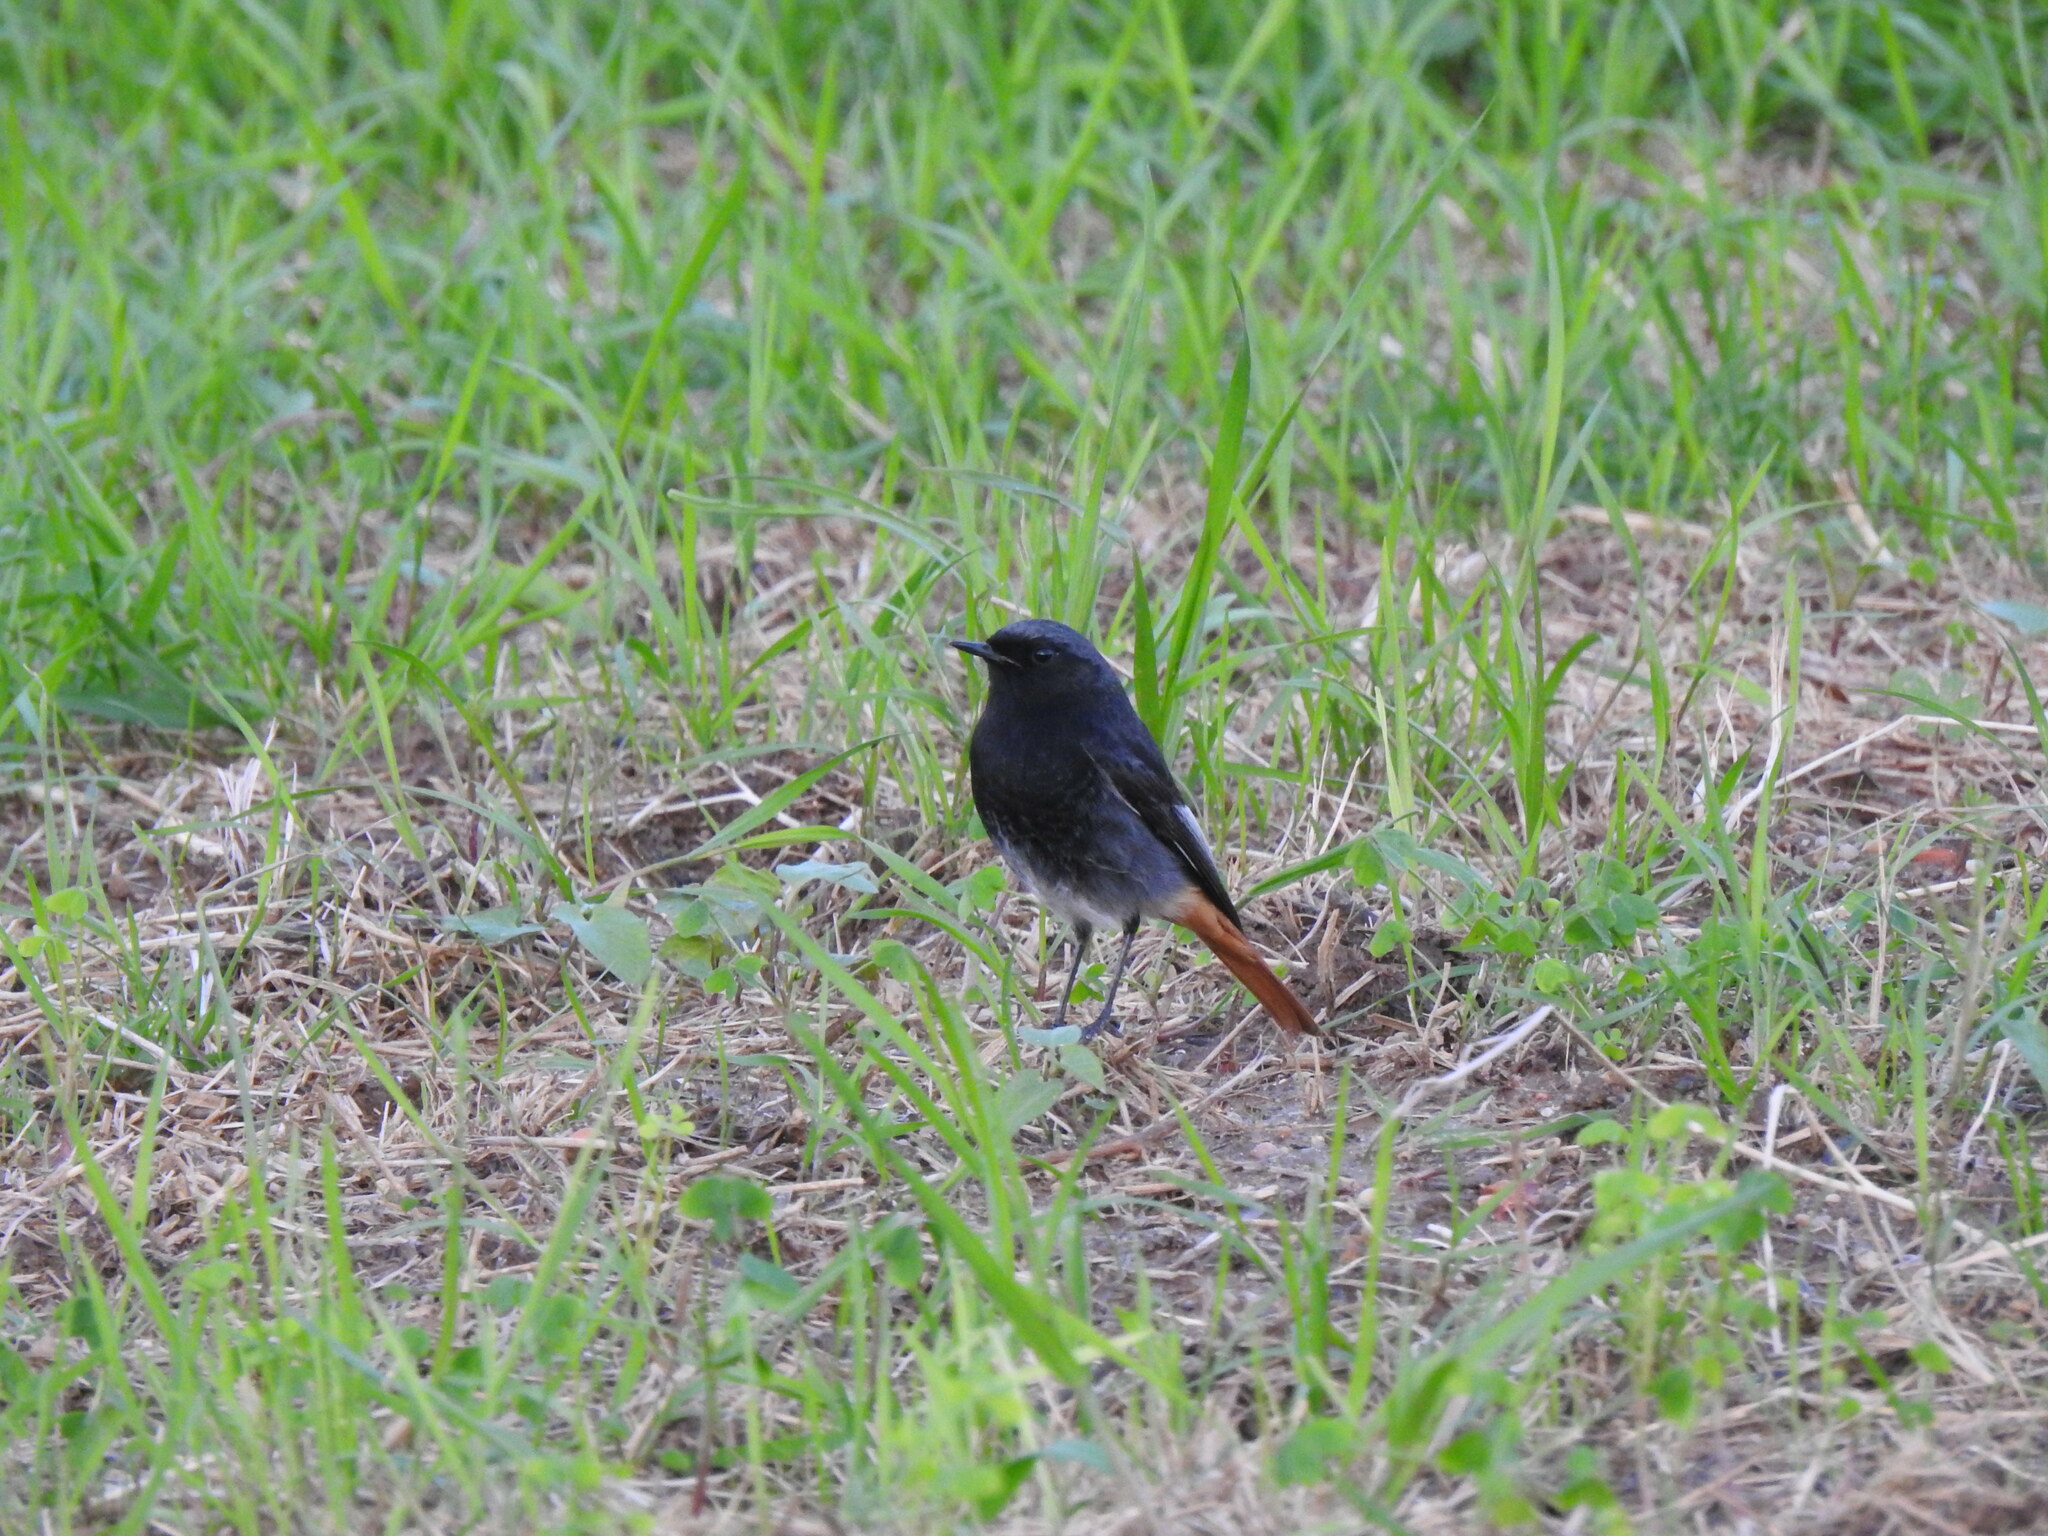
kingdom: Animalia
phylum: Chordata
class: Aves
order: Passeriformes
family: Muscicapidae
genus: Phoenicurus
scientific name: Phoenicurus ochruros
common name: Black redstart
